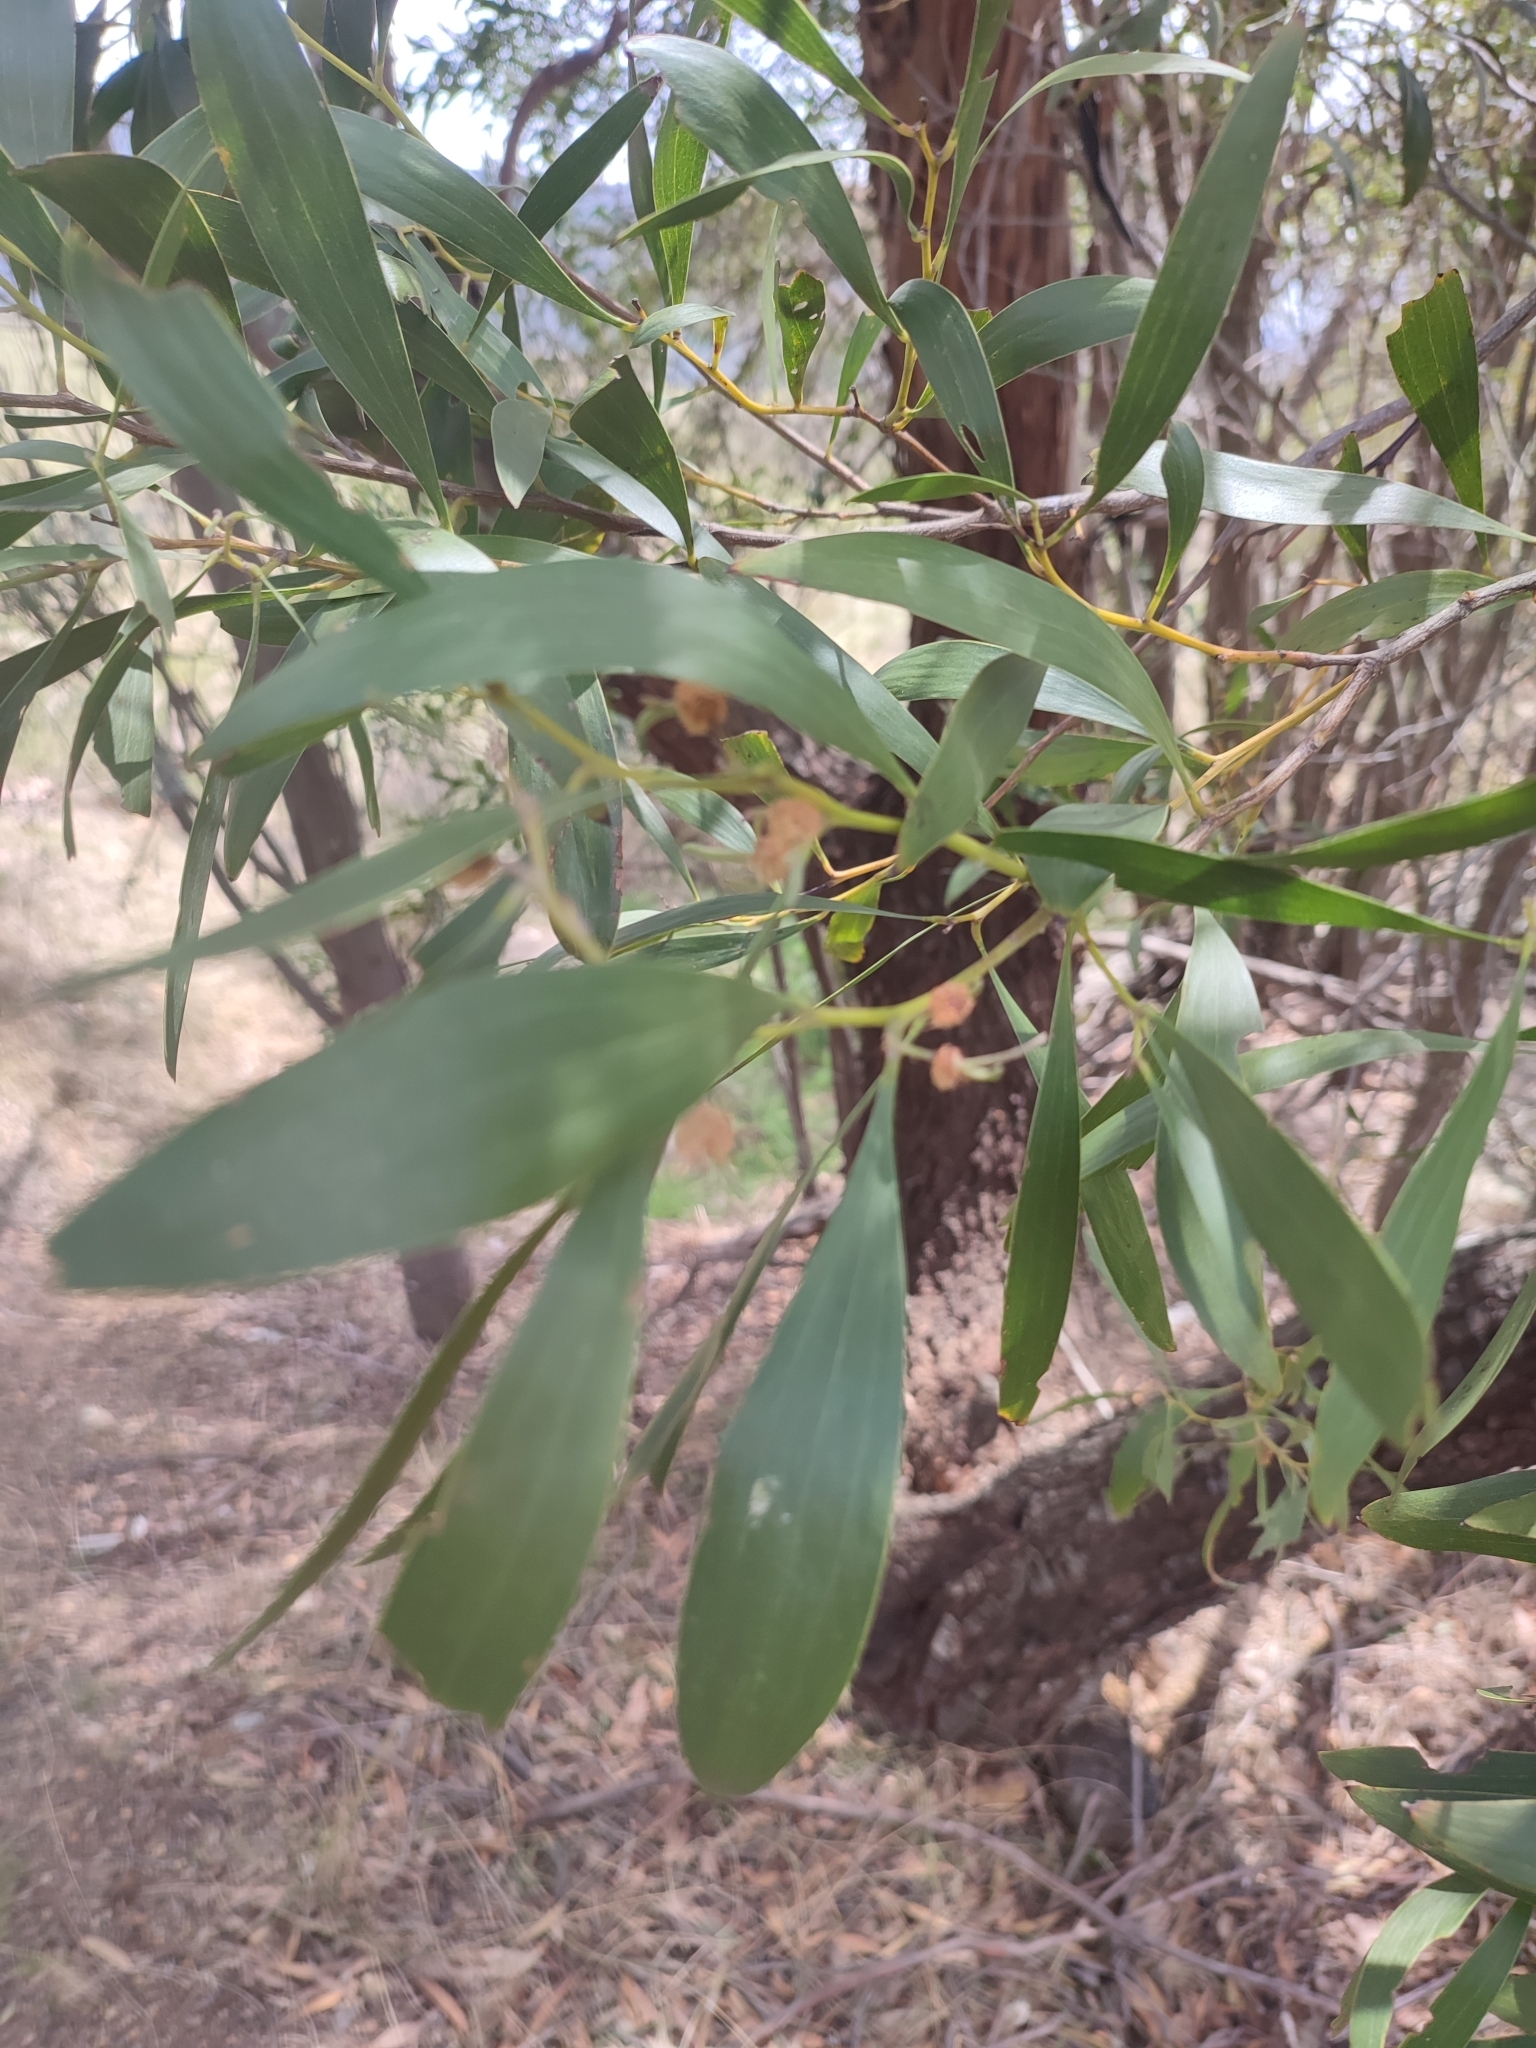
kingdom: Plantae
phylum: Tracheophyta
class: Magnoliopsida
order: Fabales
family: Fabaceae
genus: Acacia
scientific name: Acacia melanoxylon
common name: Blackwood
